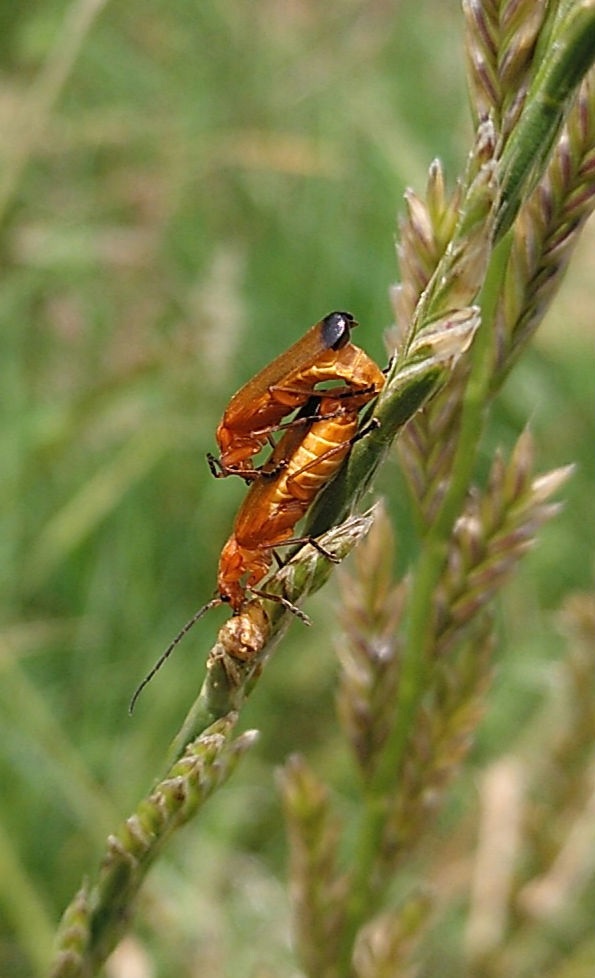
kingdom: Animalia
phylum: Arthropoda
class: Insecta
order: Coleoptera
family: Cantharidae
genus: Rhagonycha
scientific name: Rhagonycha fulva
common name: Common red soldier beetle
